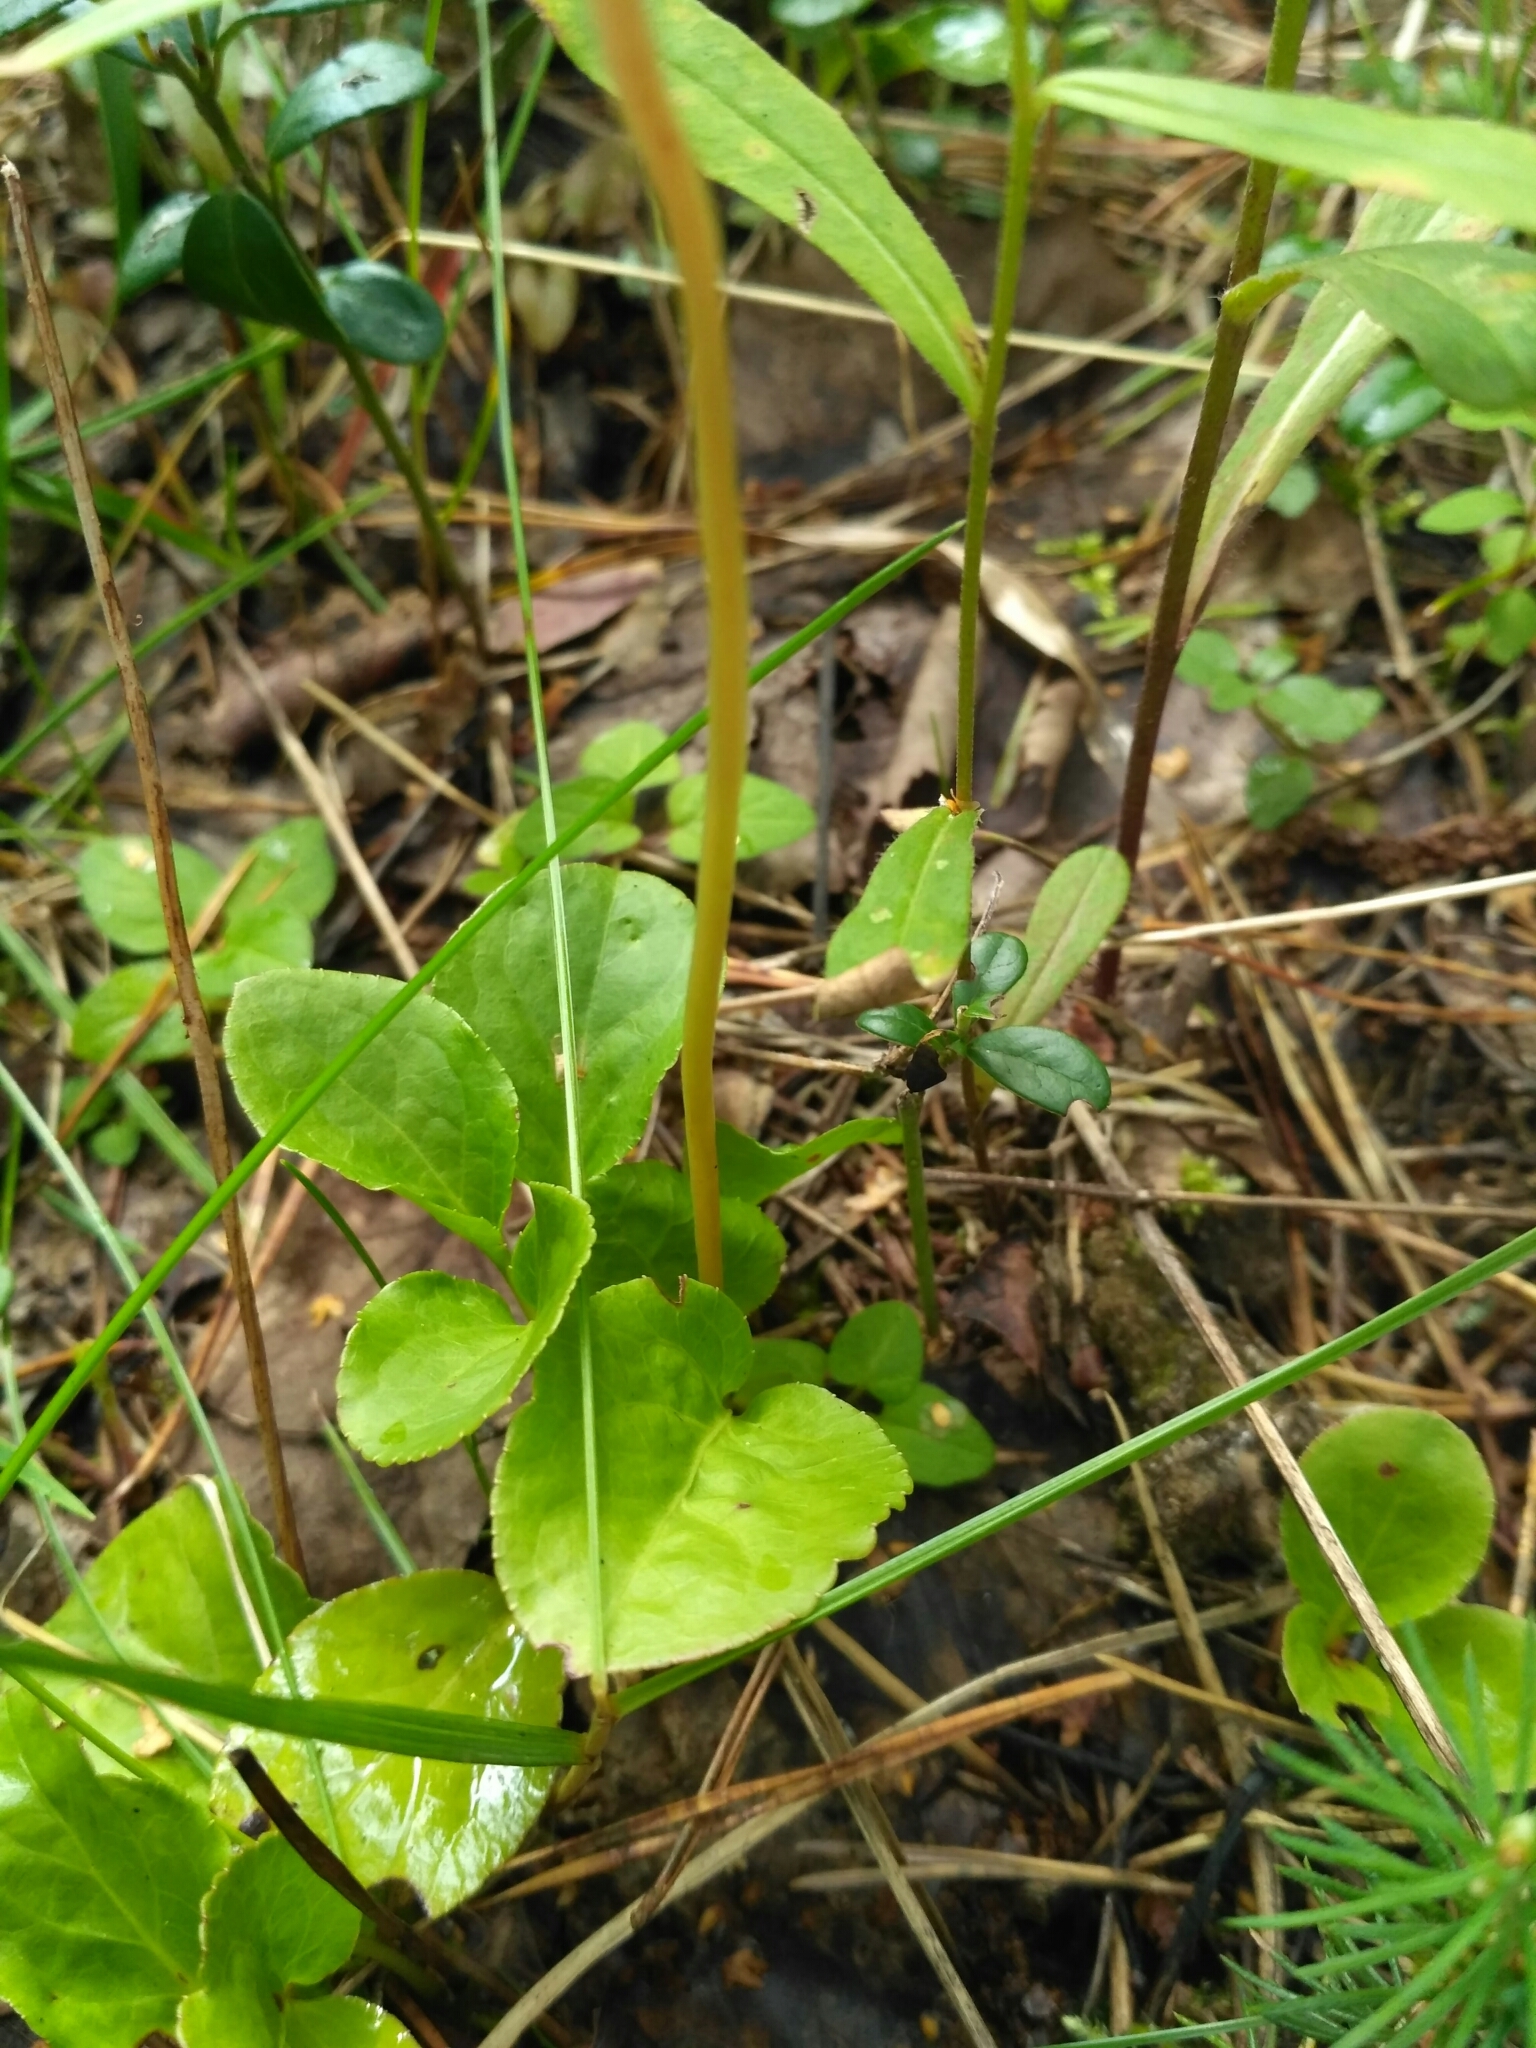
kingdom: Plantae
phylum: Tracheophyta
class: Magnoliopsida
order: Ericales
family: Ericaceae
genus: Pyrola
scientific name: Pyrola minor
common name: Common wintergreen
